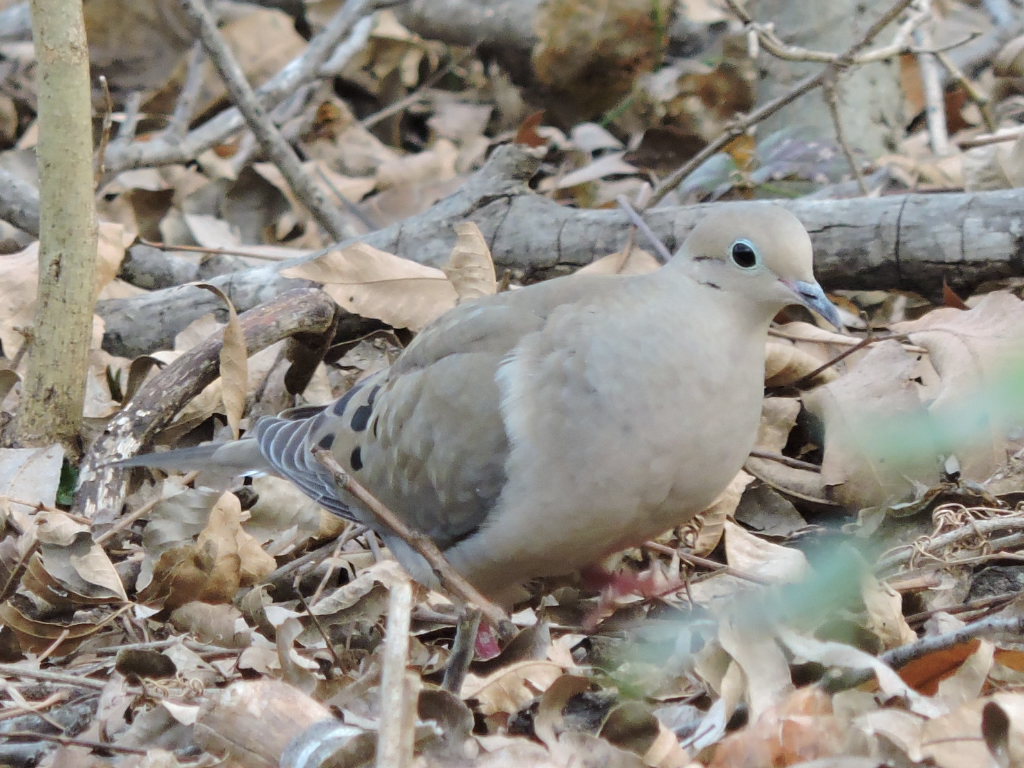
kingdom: Animalia
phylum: Chordata
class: Aves
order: Columbiformes
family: Columbidae
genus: Zenaida
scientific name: Zenaida macroura
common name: Mourning dove
